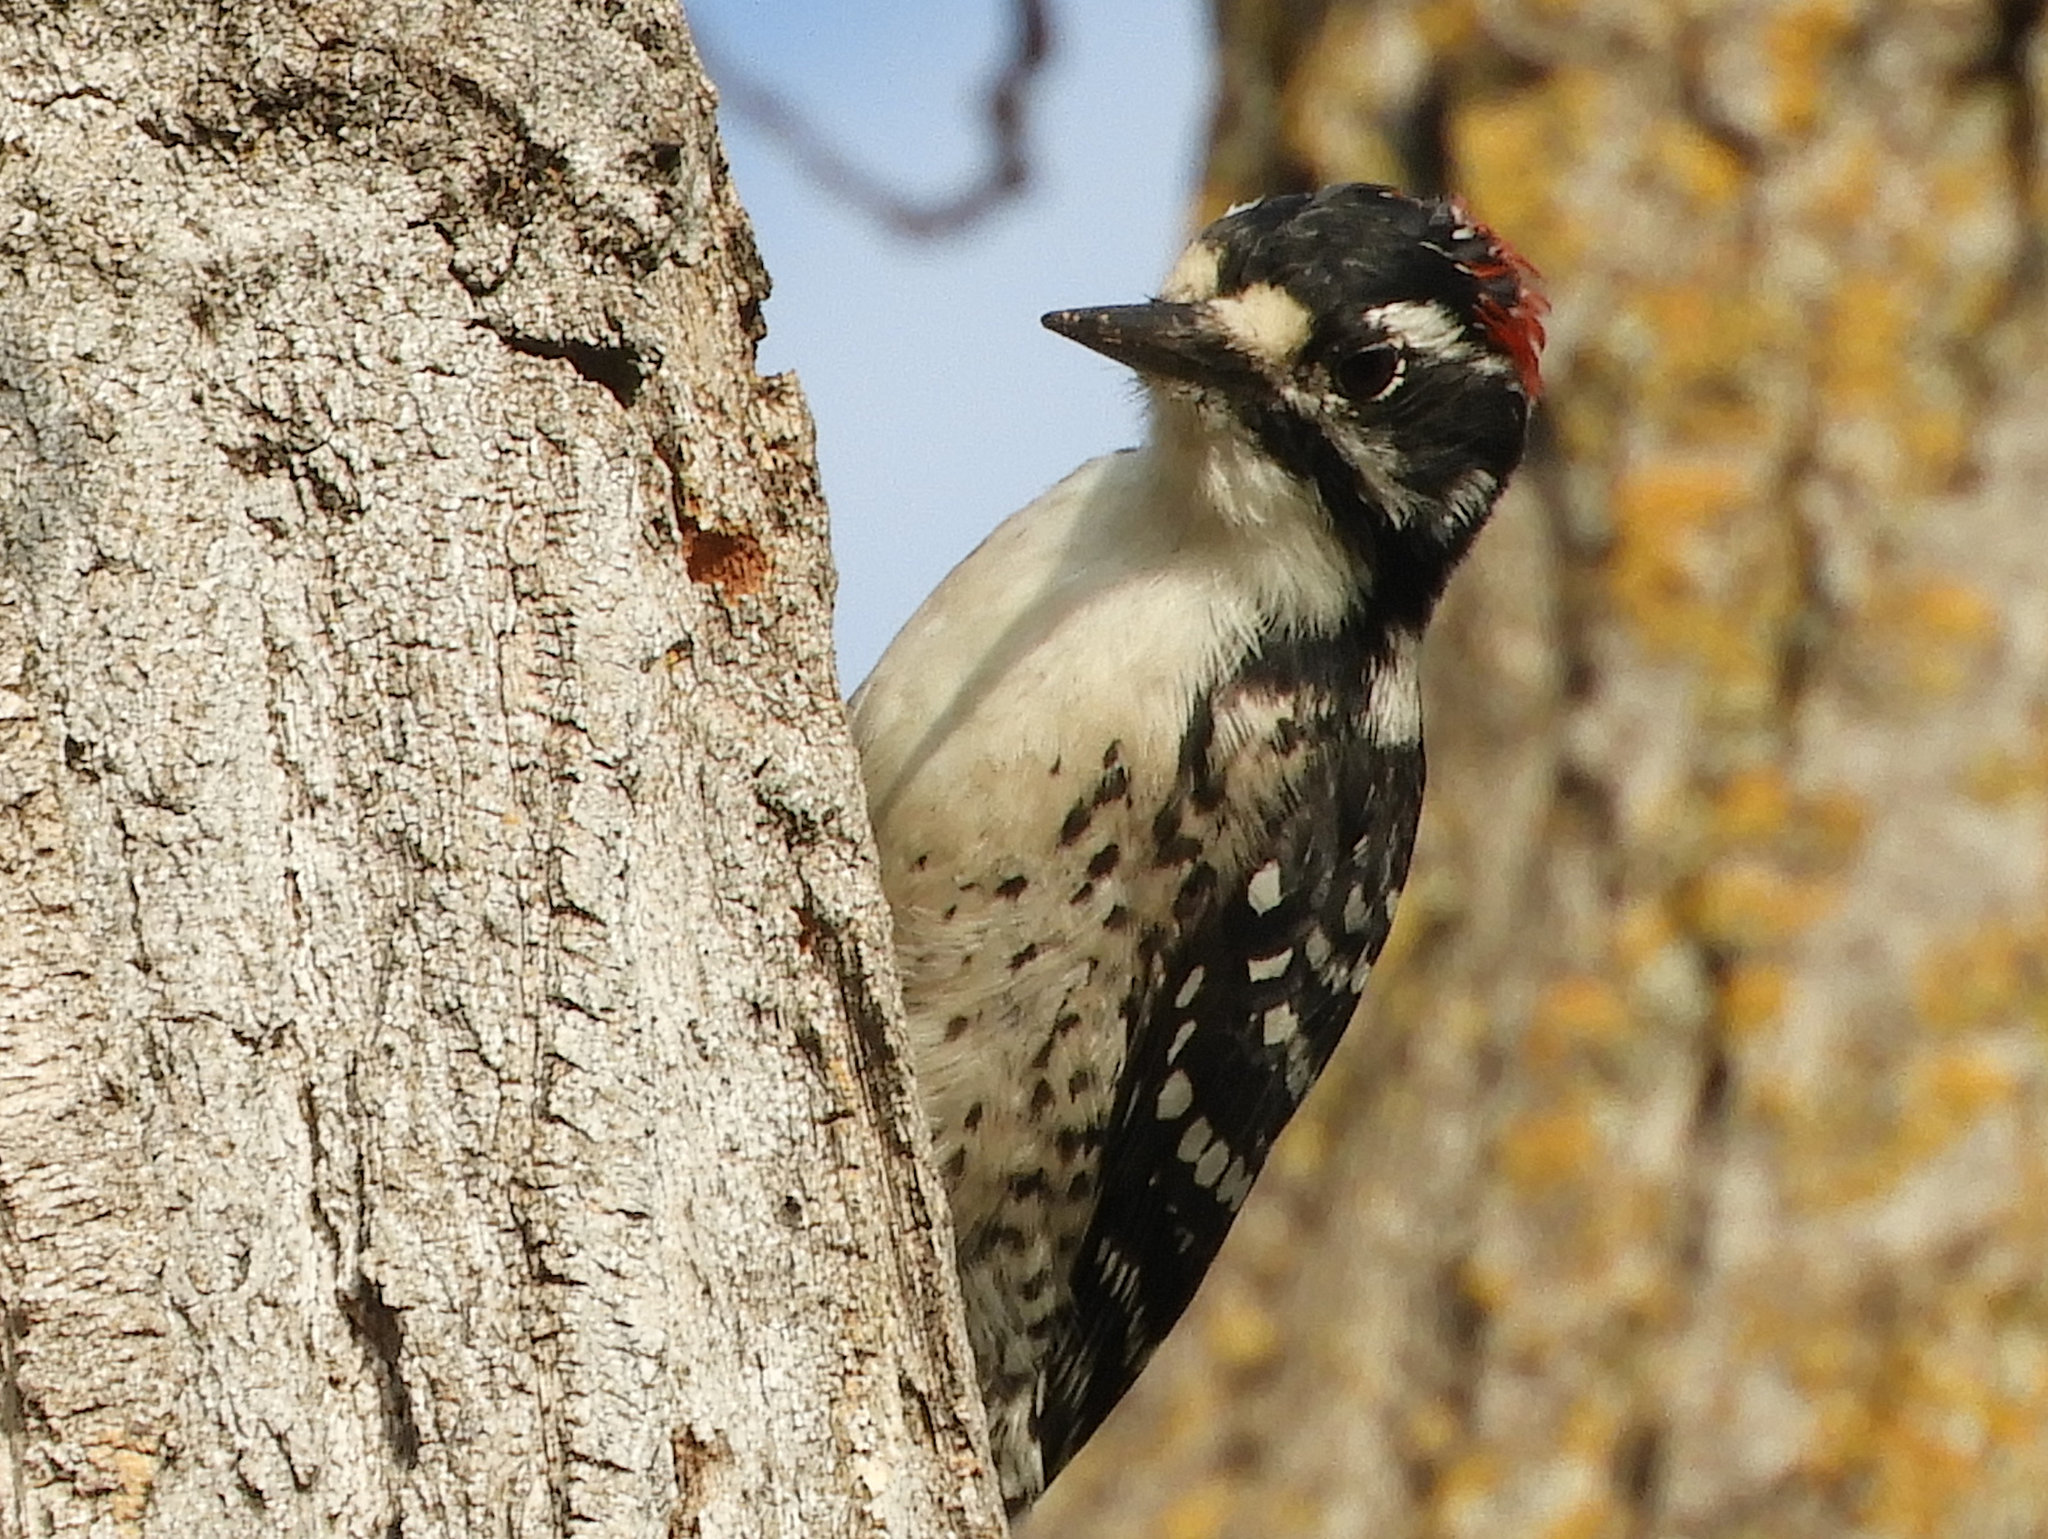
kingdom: Animalia
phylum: Chordata
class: Aves
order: Piciformes
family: Picidae
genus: Dryobates
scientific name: Dryobates nuttallii
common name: Nuttall's woodpecker
